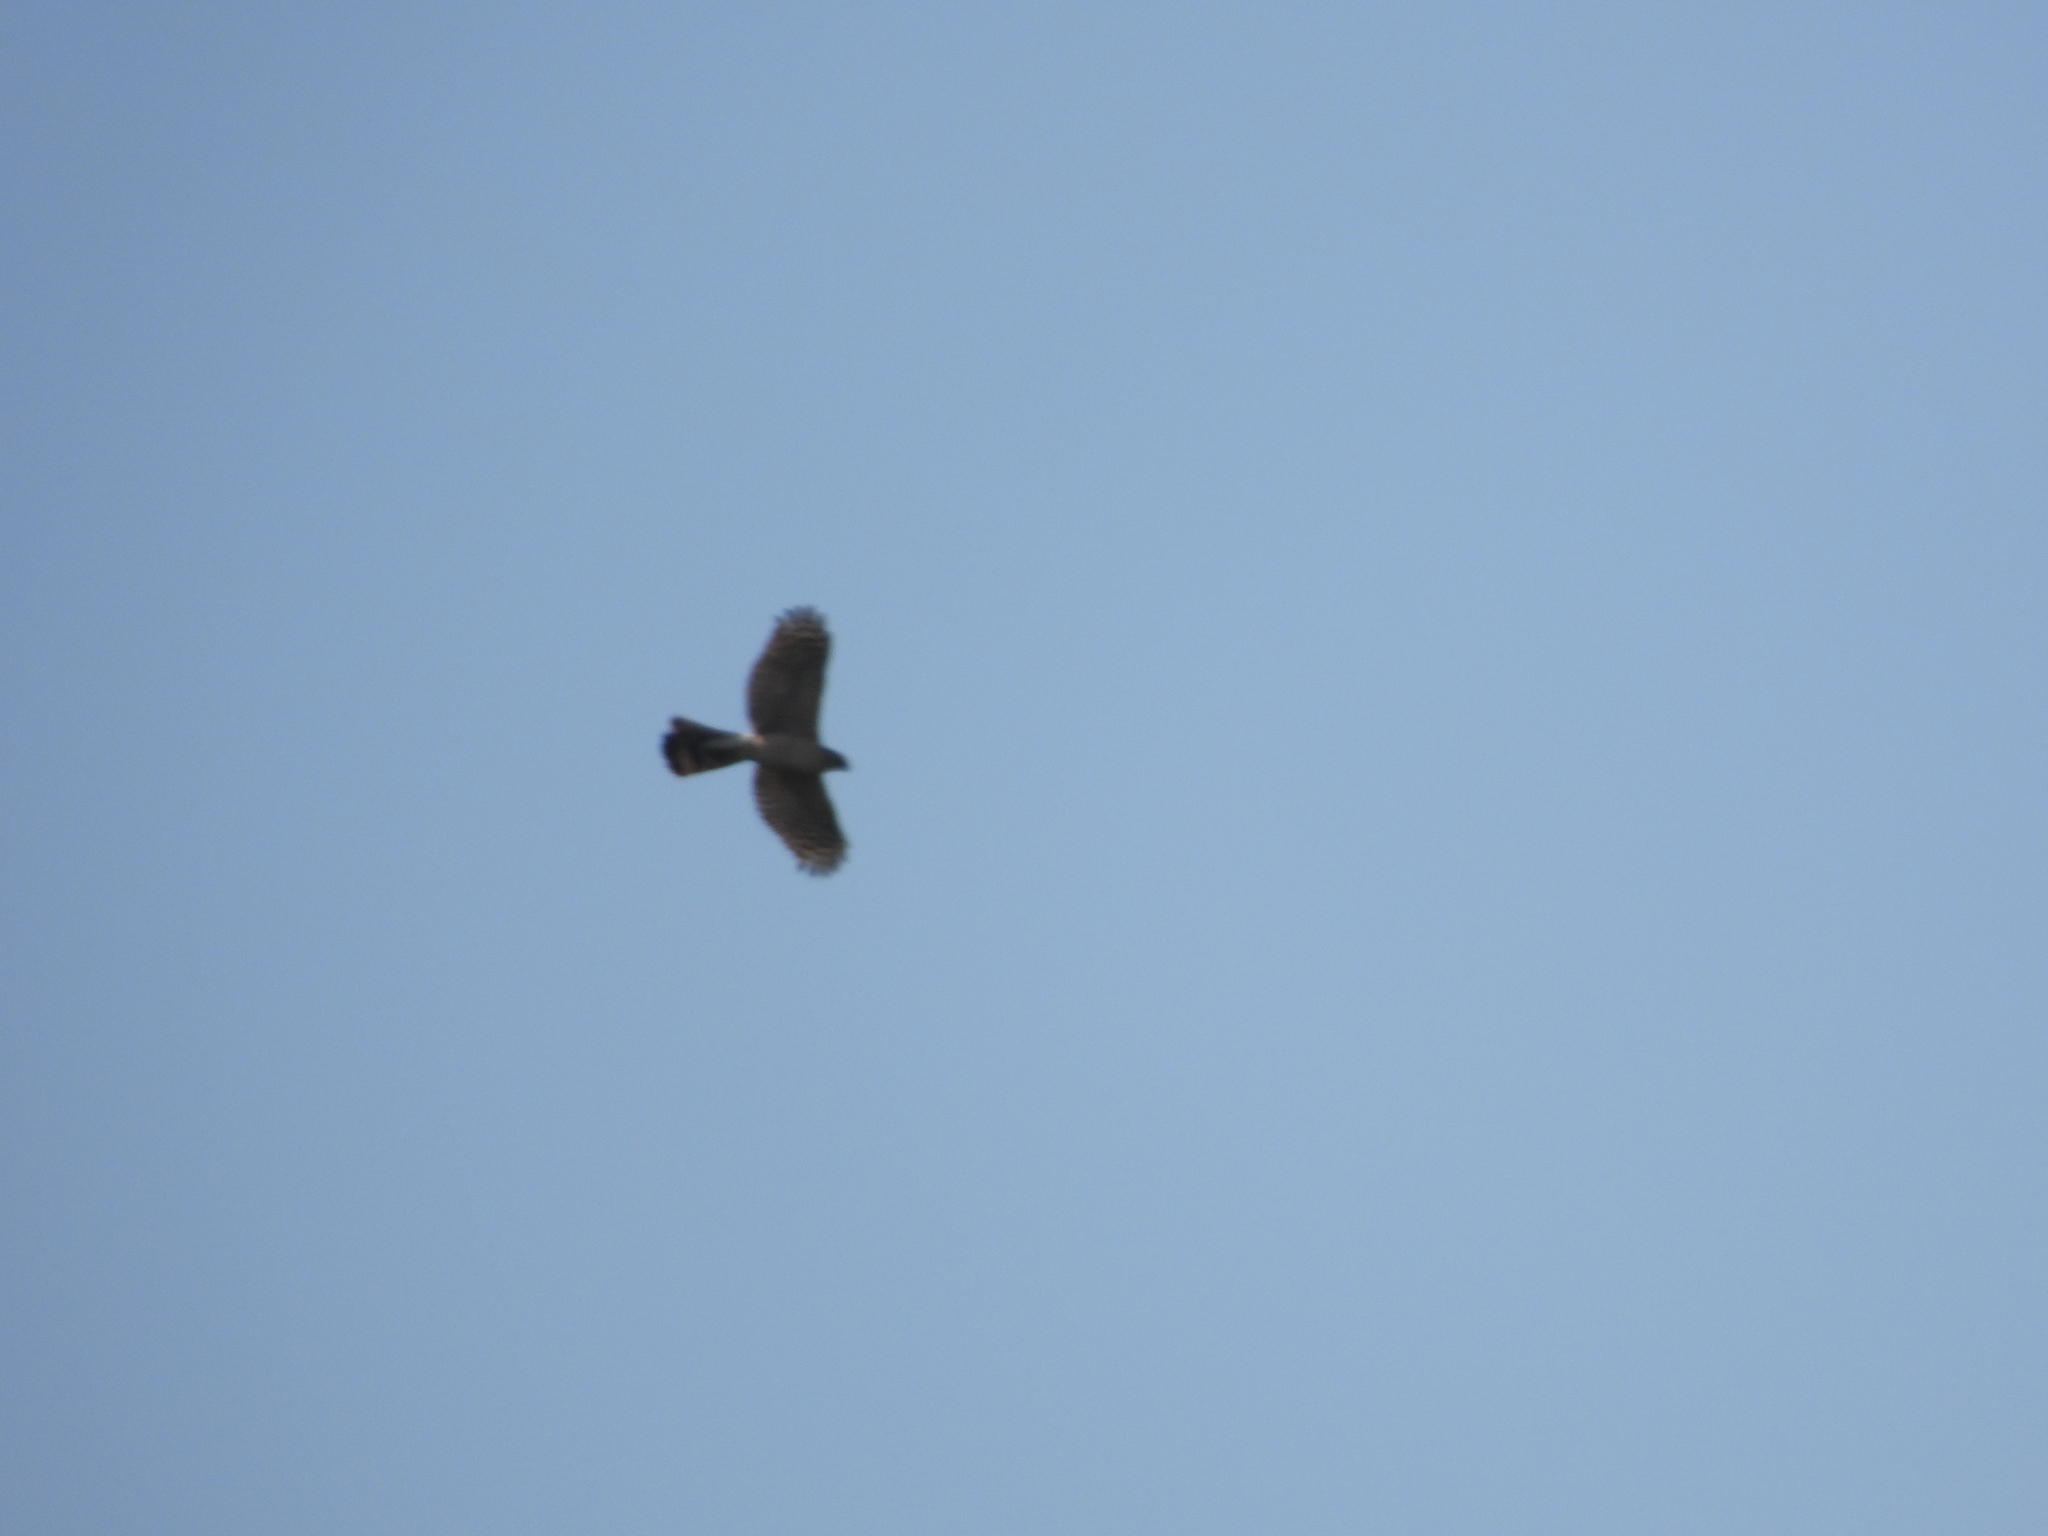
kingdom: Animalia
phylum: Chordata
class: Aves
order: Accipitriformes
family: Accipitridae
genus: Accipiter
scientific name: Accipiter cooperii
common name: Cooper's hawk
